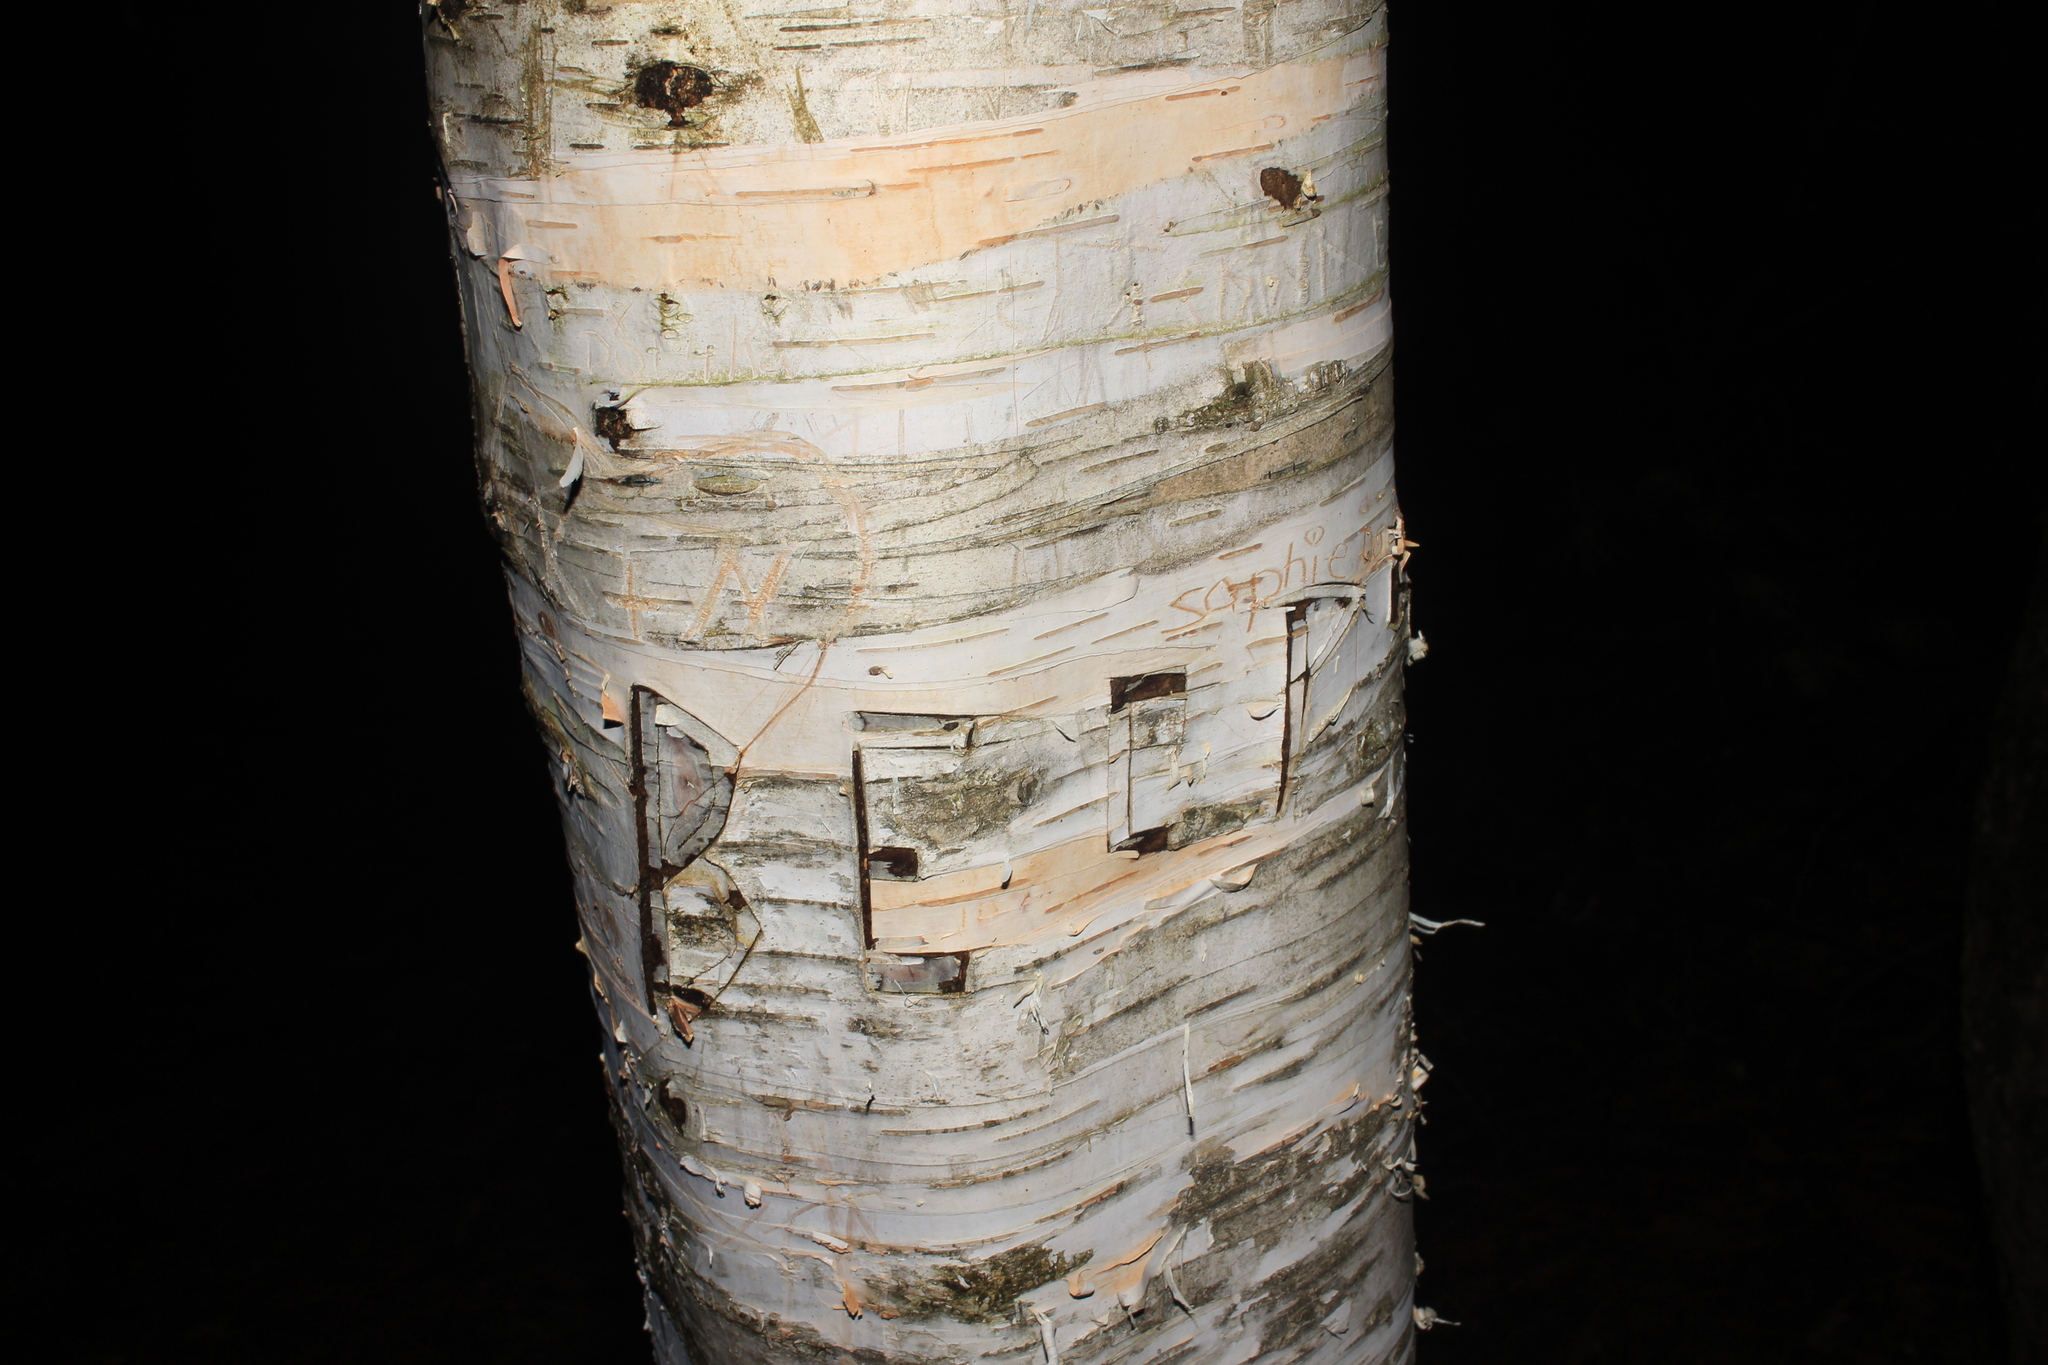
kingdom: Plantae
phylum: Tracheophyta
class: Magnoliopsida
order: Fagales
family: Betulaceae
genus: Betula
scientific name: Betula papyrifera
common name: Paper birch
